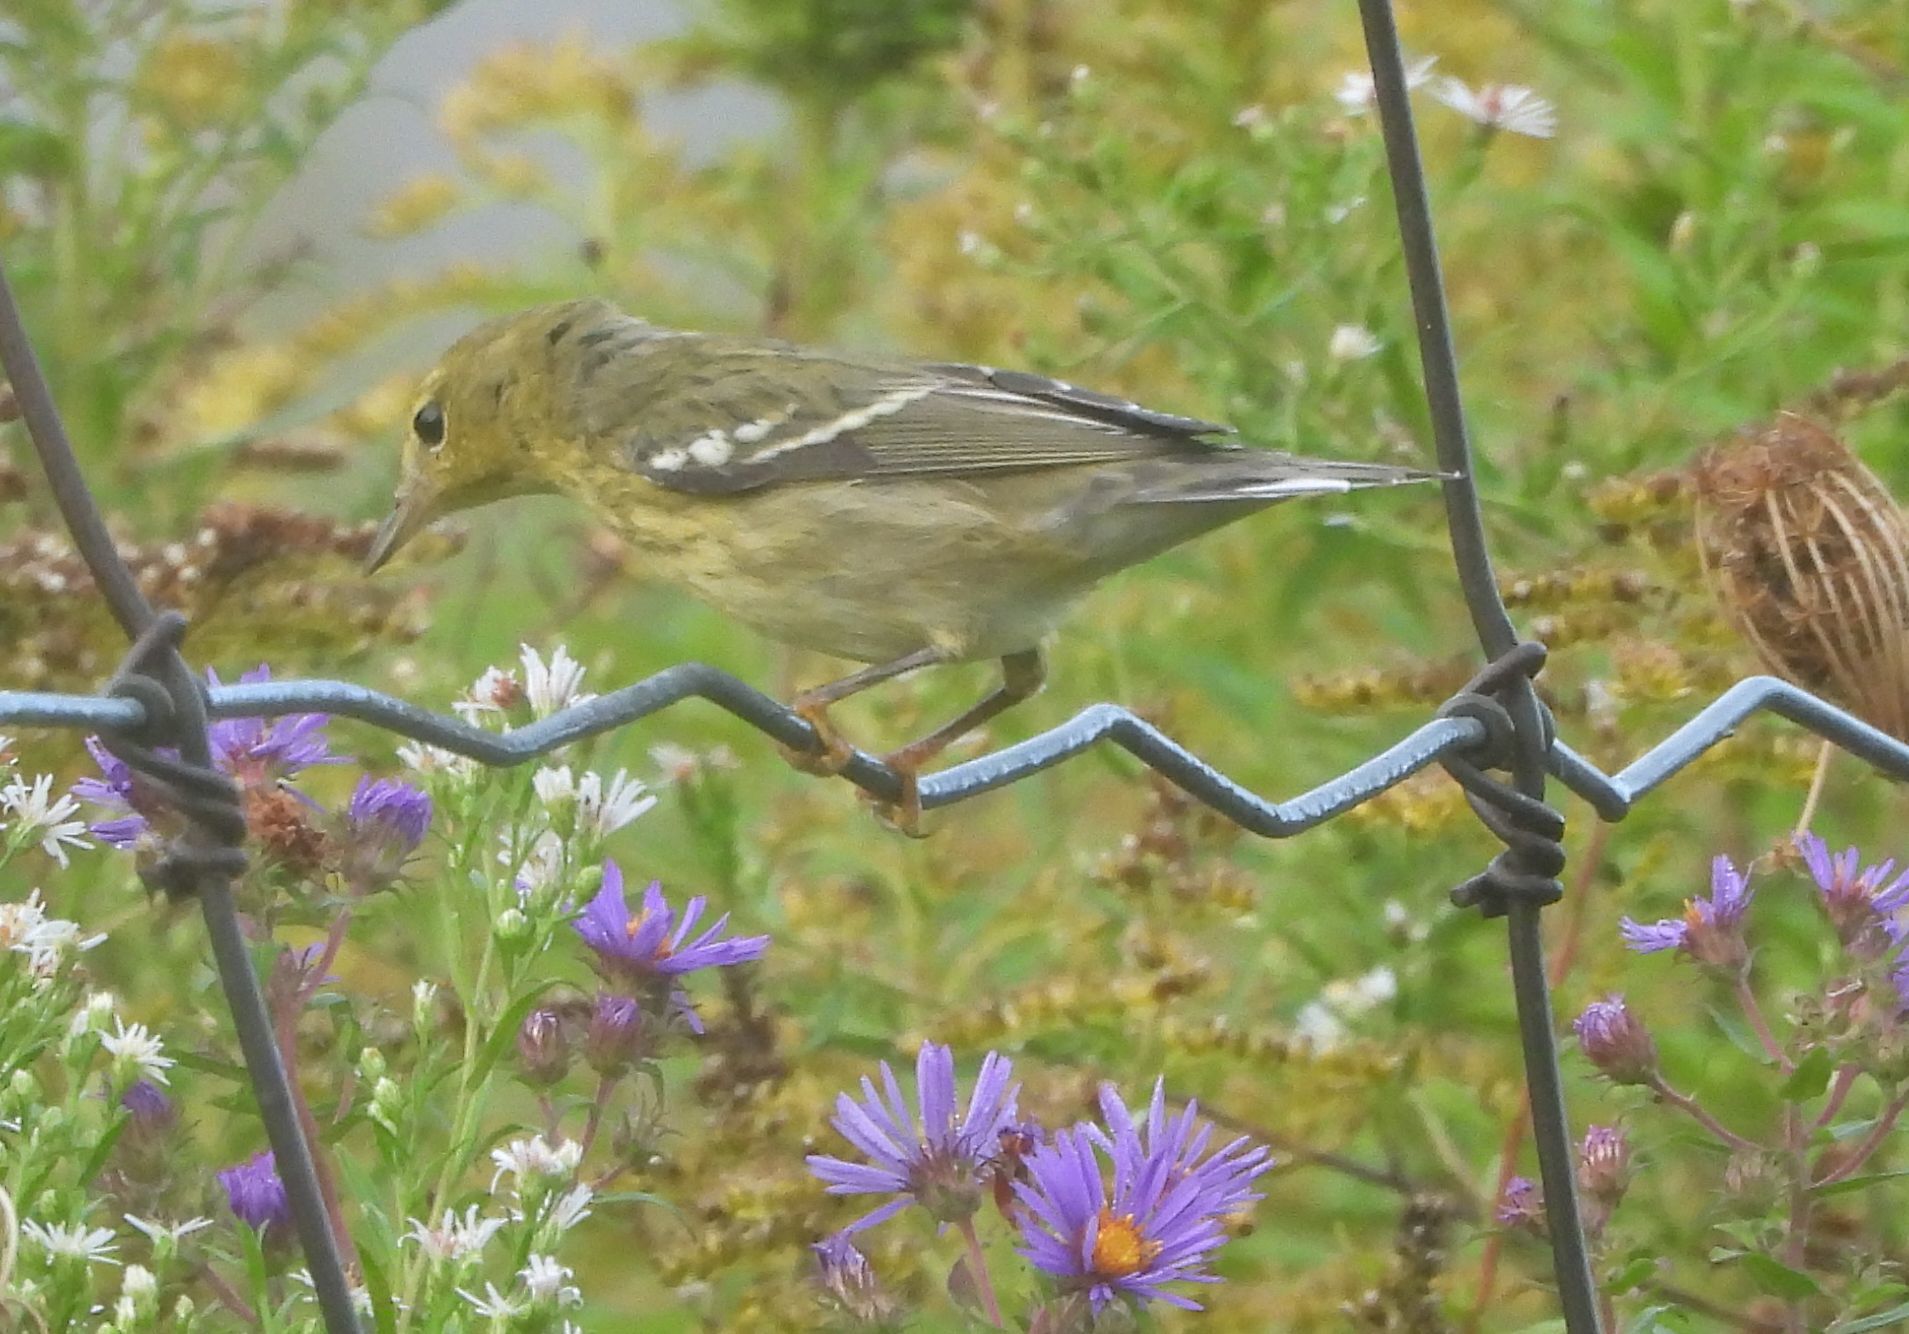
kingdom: Animalia
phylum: Chordata
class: Aves
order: Passeriformes
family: Parulidae
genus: Setophaga
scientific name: Setophaga striata
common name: Blackpoll warbler
